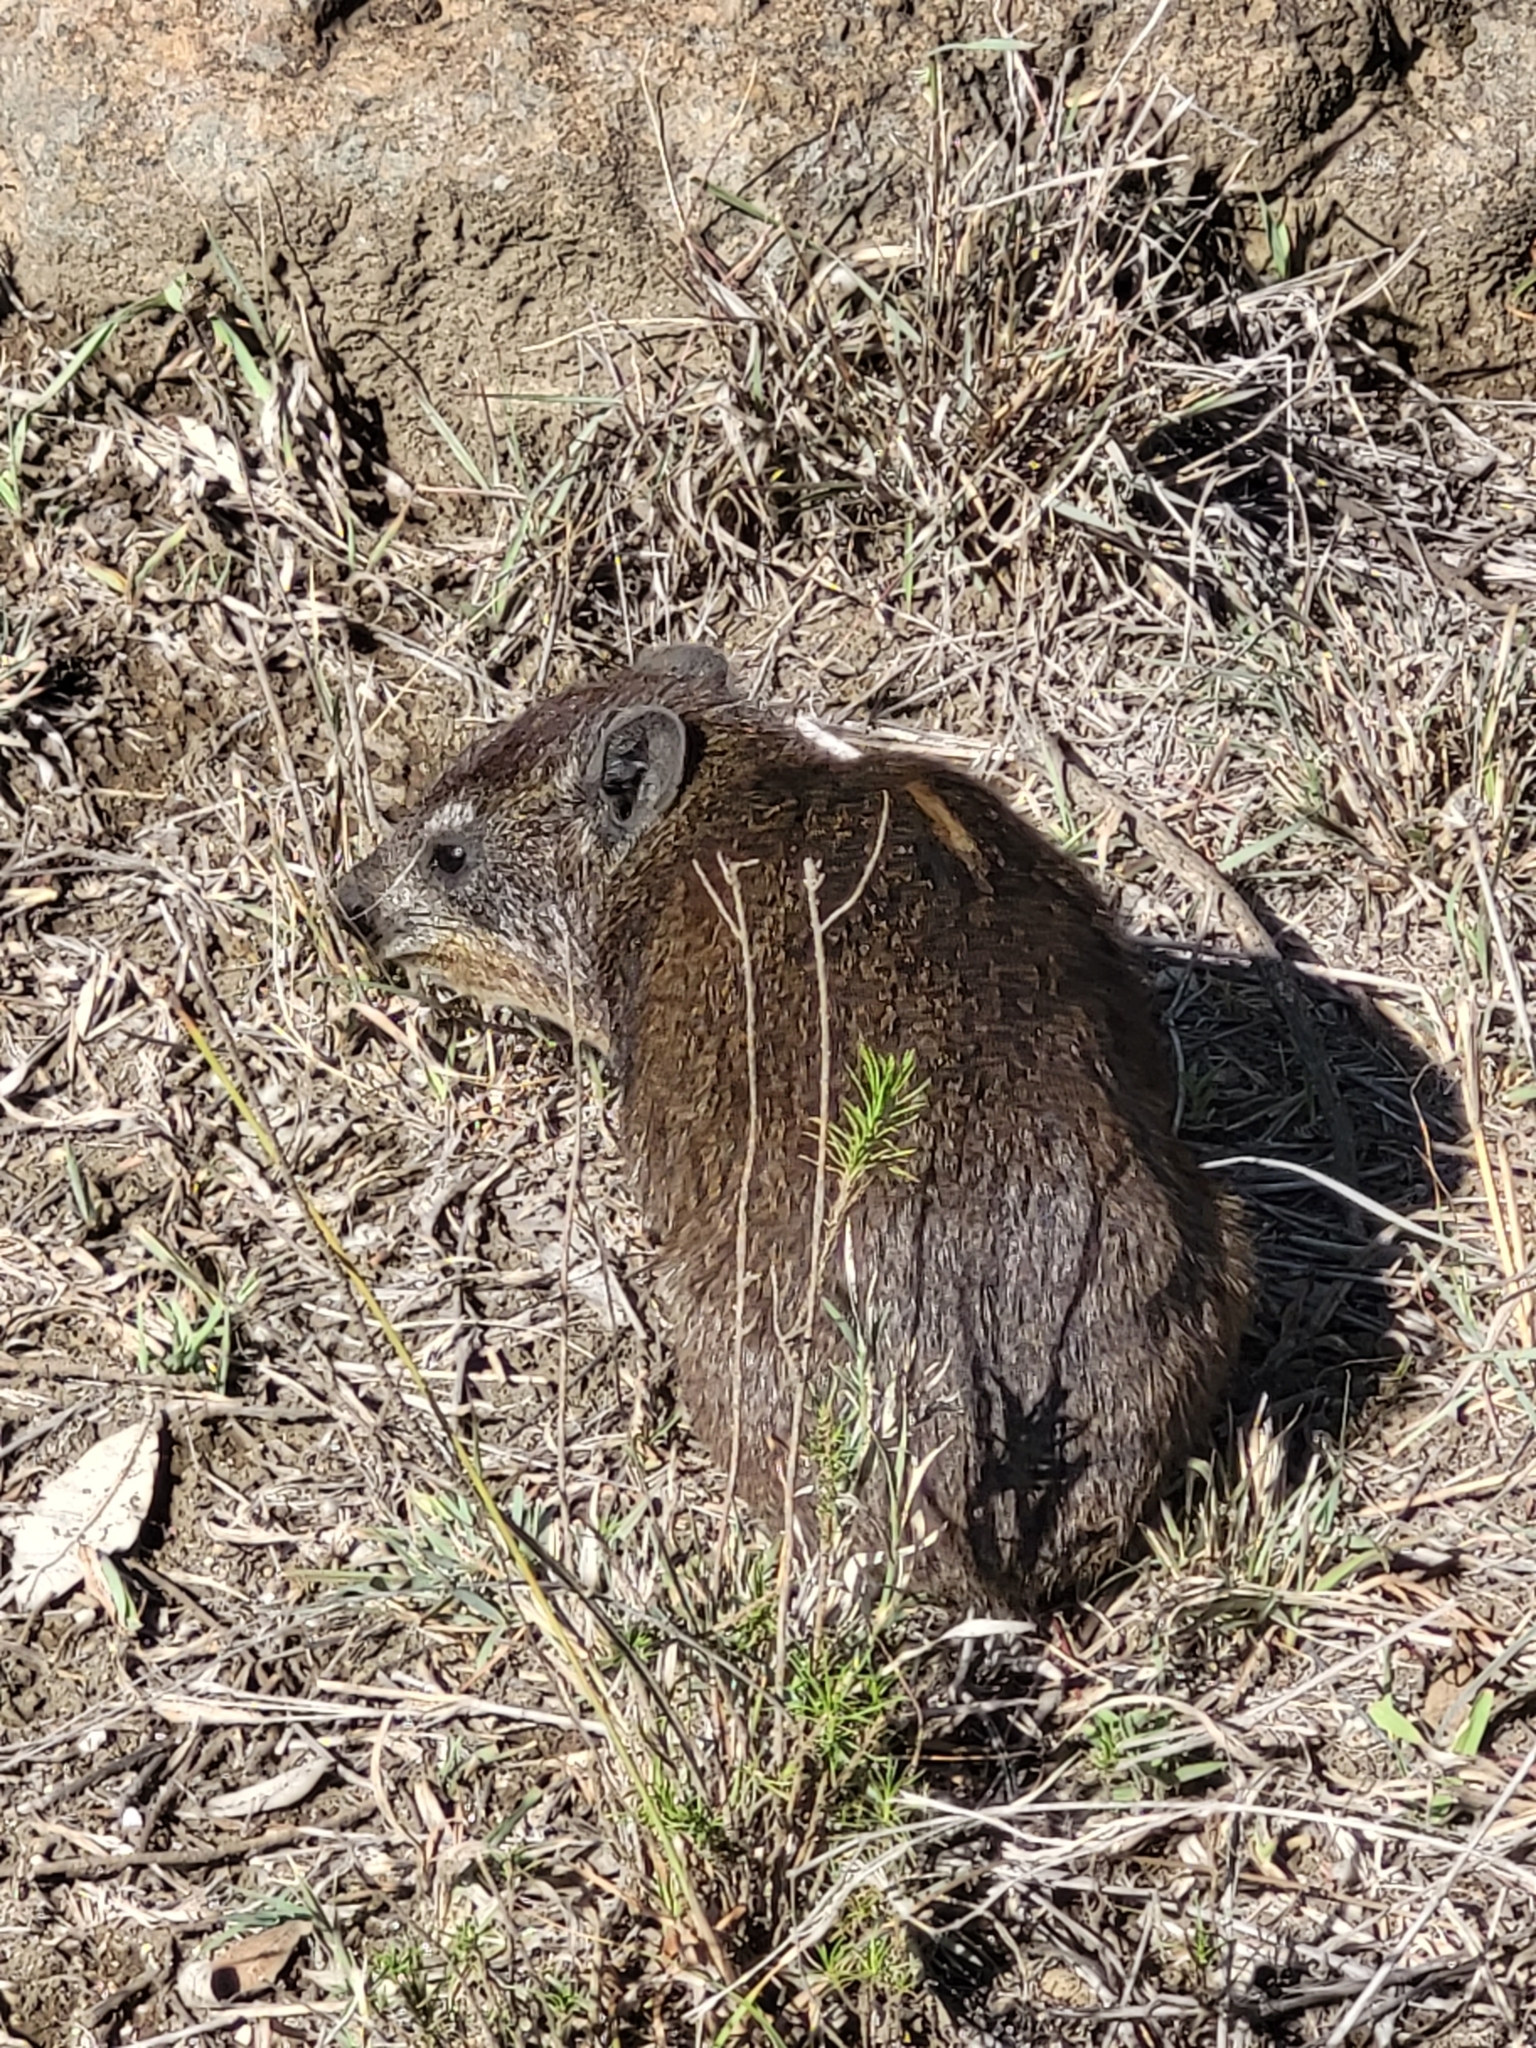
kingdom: Animalia
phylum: Chordata
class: Mammalia
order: Hyracoidea
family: Procaviidae
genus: Procavia
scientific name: Procavia capensis
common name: Rock hyrax
